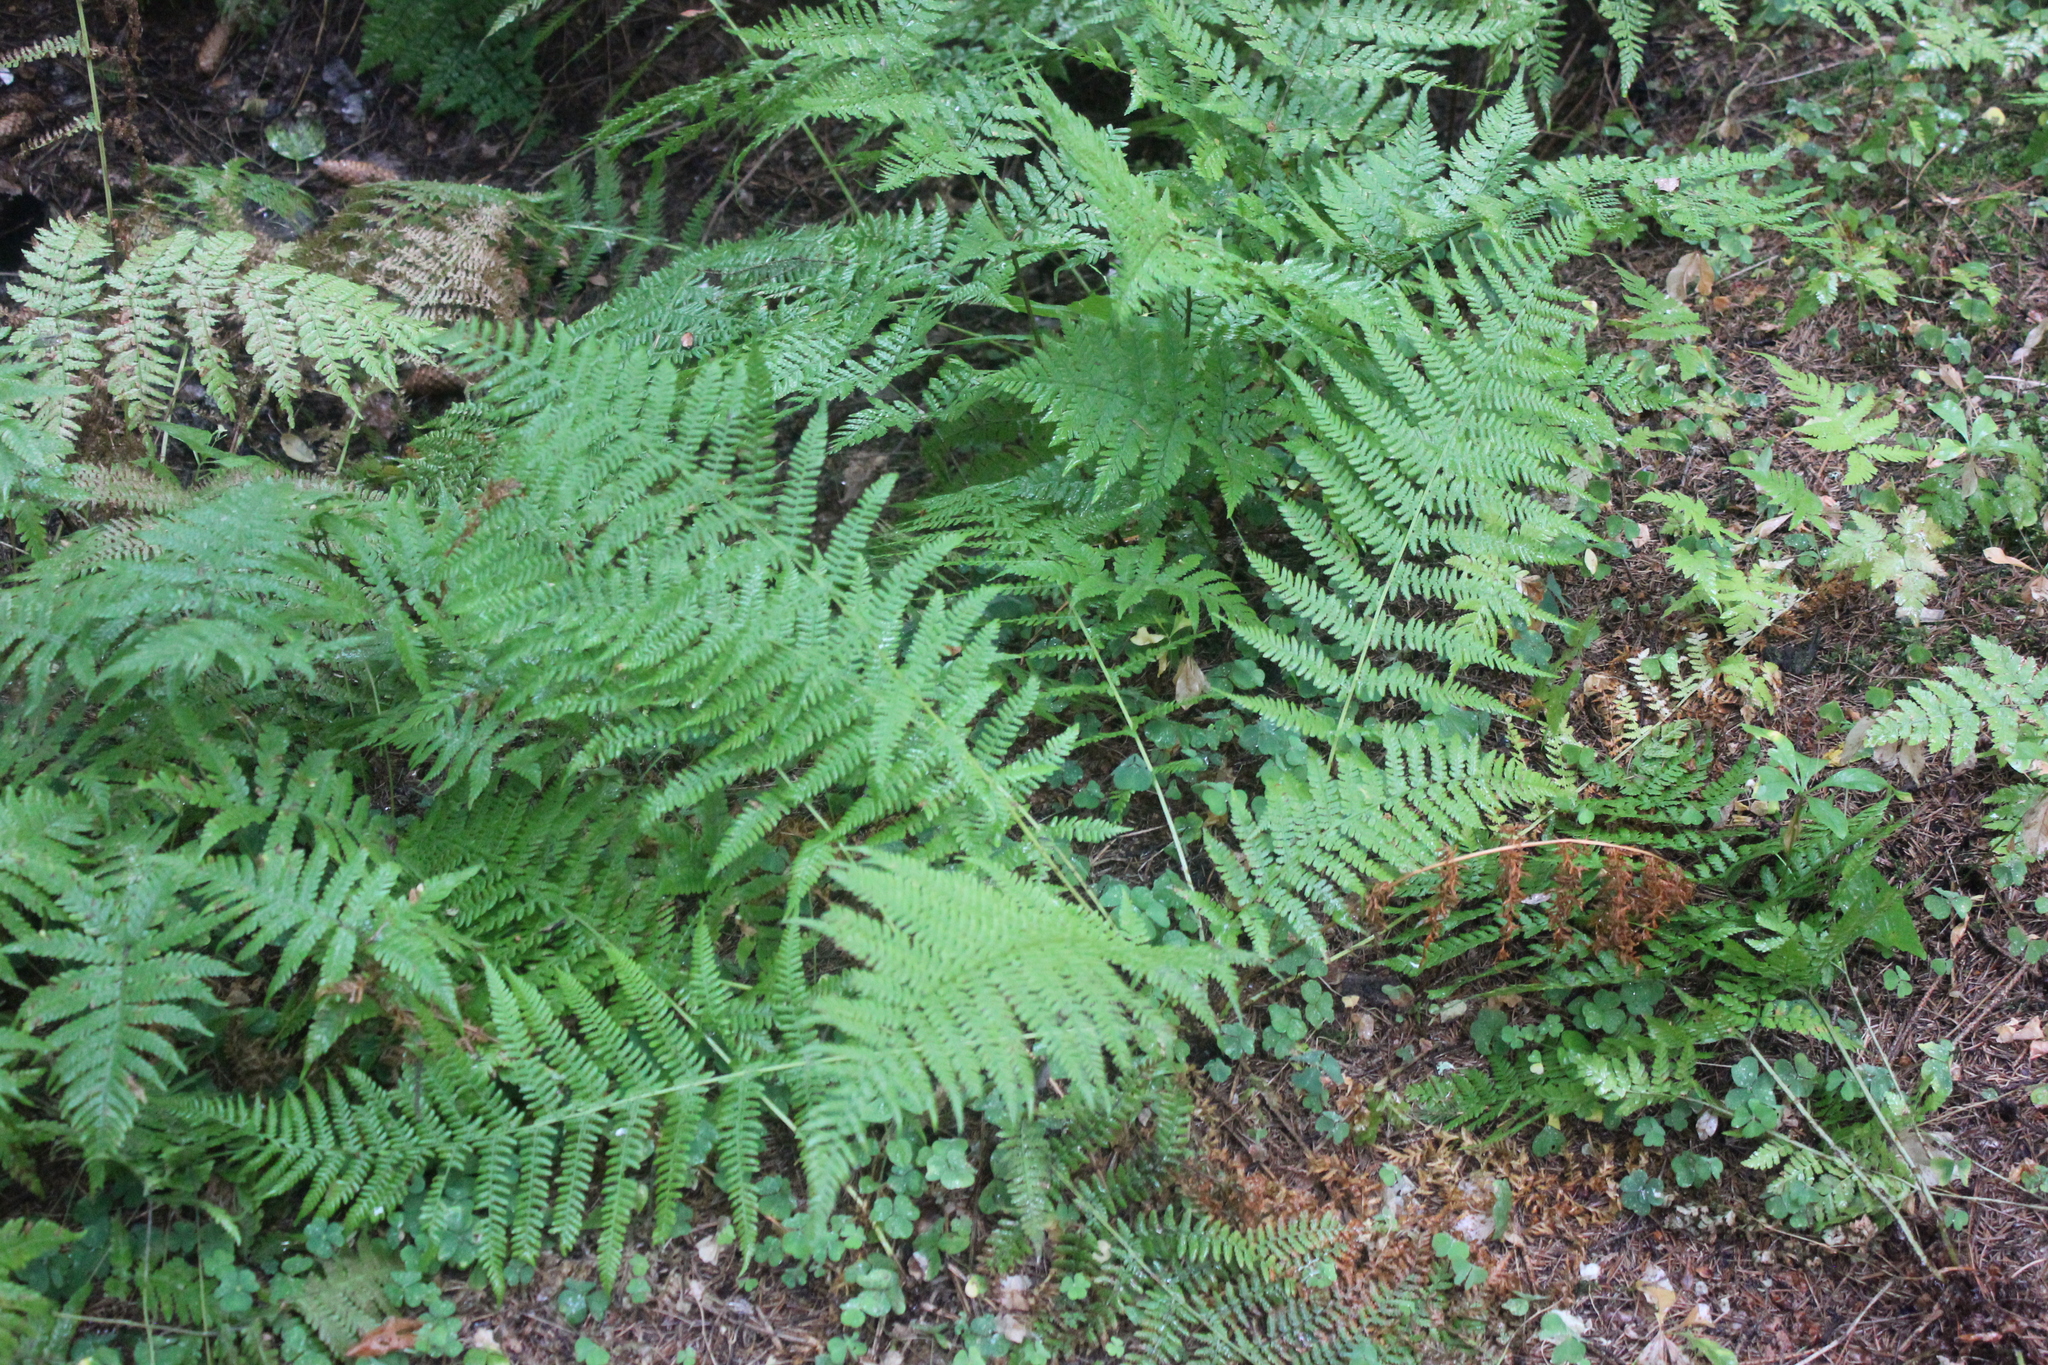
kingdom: Plantae
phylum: Tracheophyta
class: Polypodiopsida
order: Polypodiales
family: Athyriaceae
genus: Athyrium
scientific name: Athyrium filix-femina
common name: Lady fern
